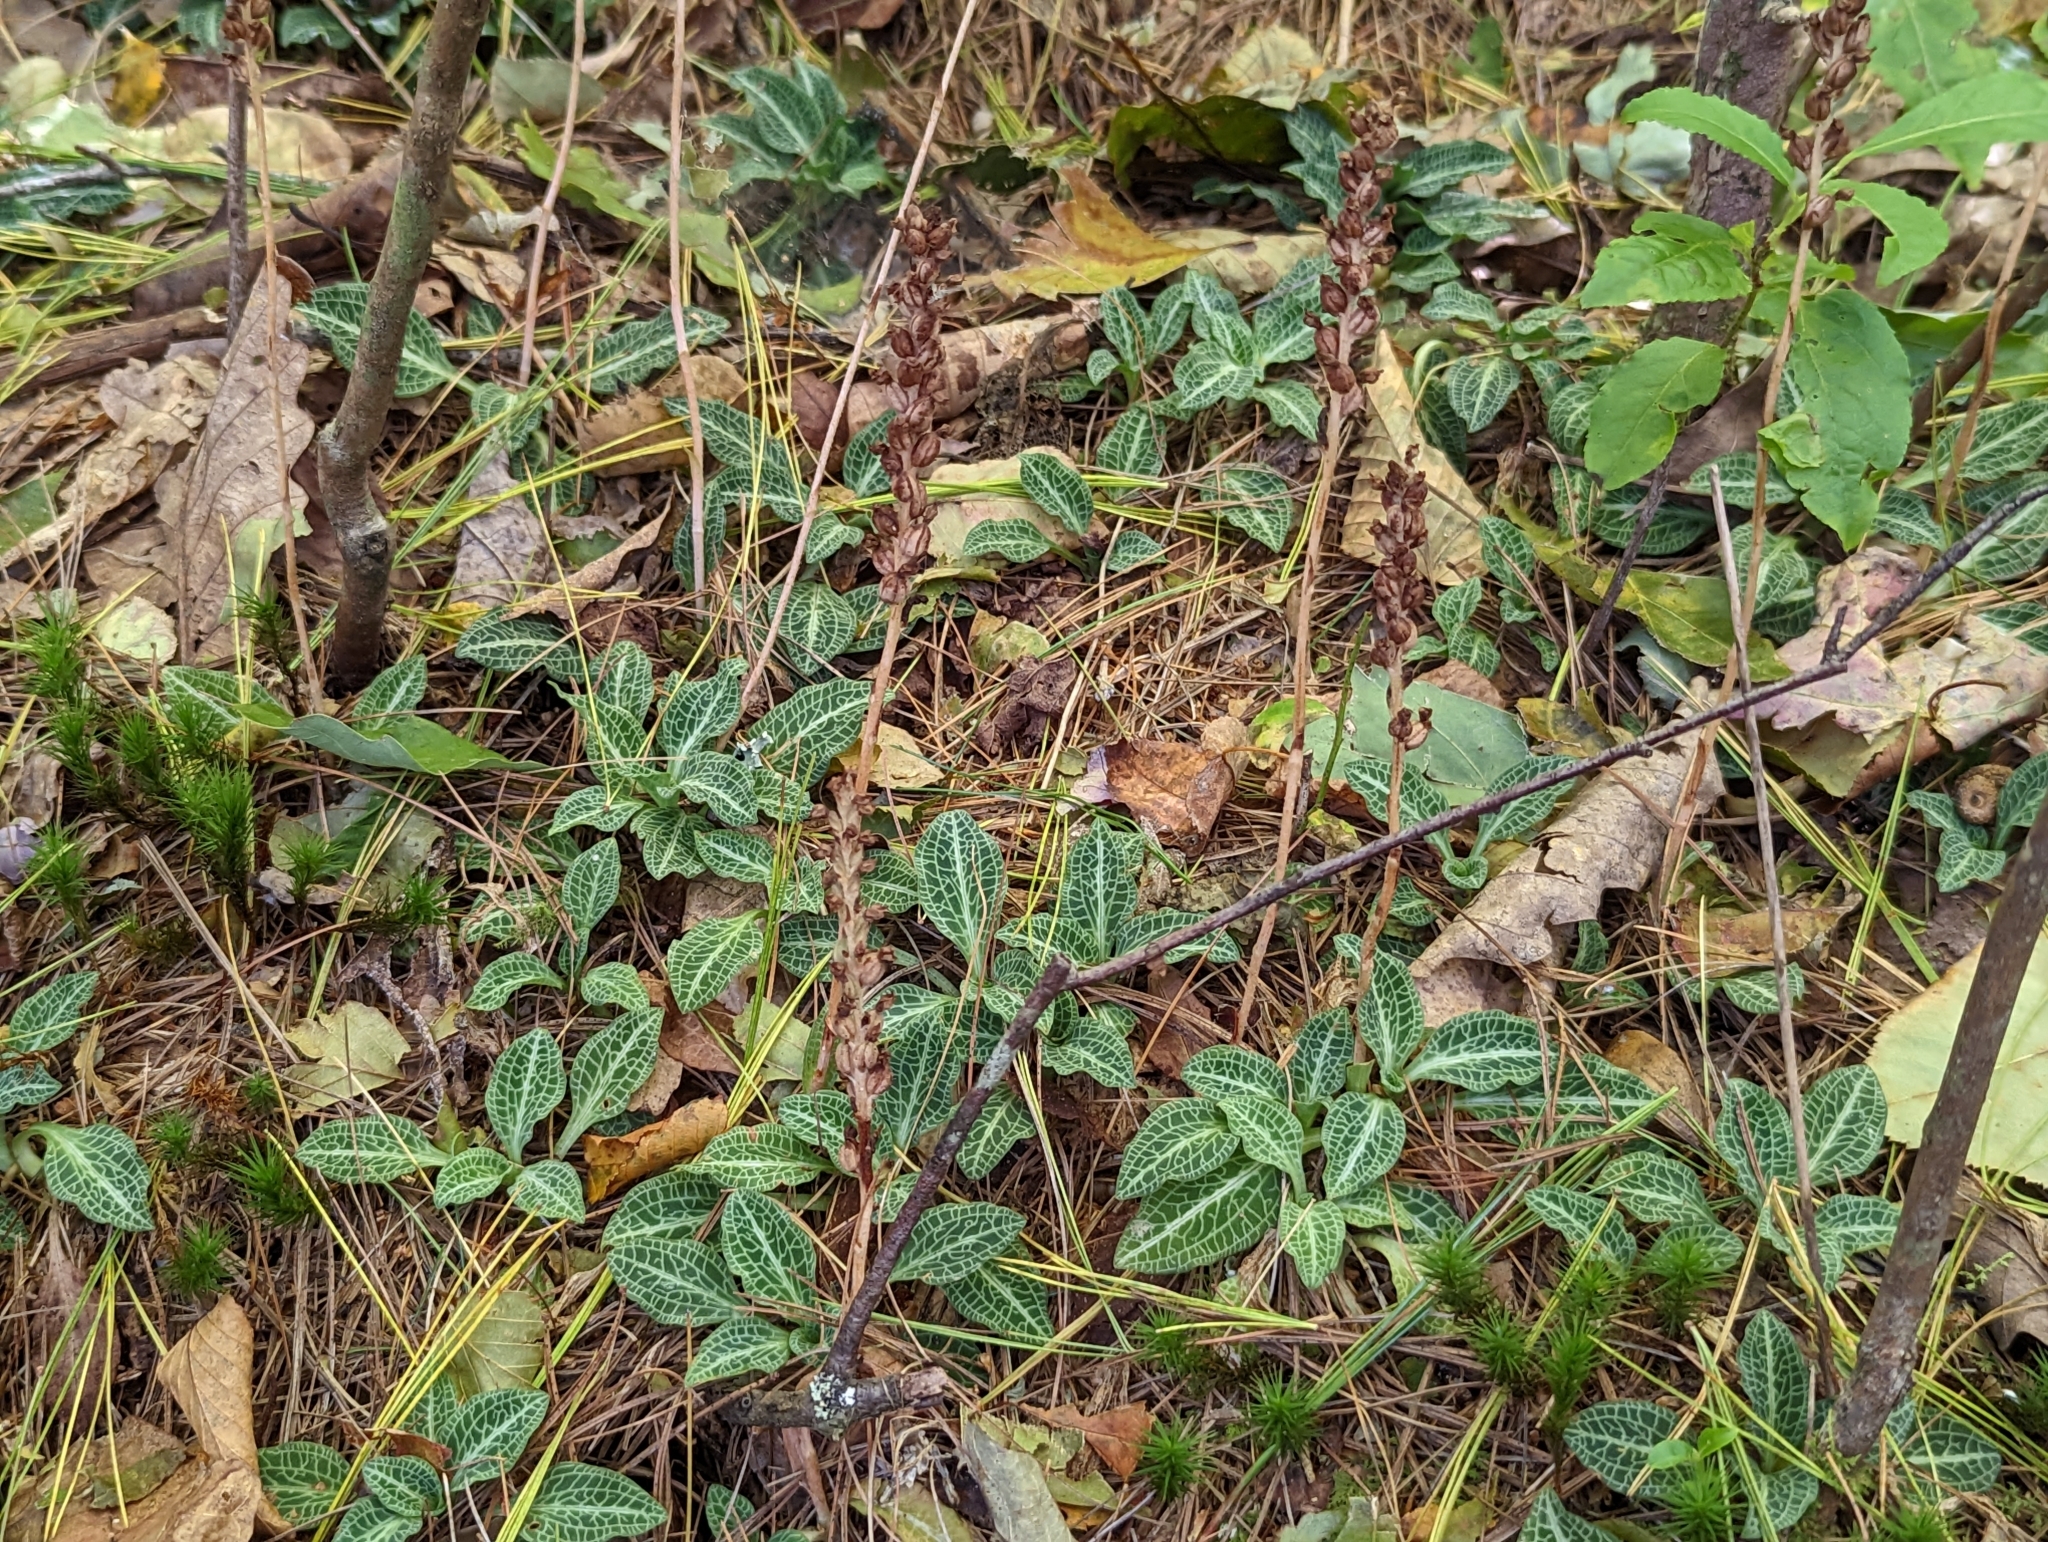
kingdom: Plantae
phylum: Tracheophyta
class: Liliopsida
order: Asparagales
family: Orchidaceae
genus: Goodyera
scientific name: Goodyera pubescens
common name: Downy rattlesnake-plantain
